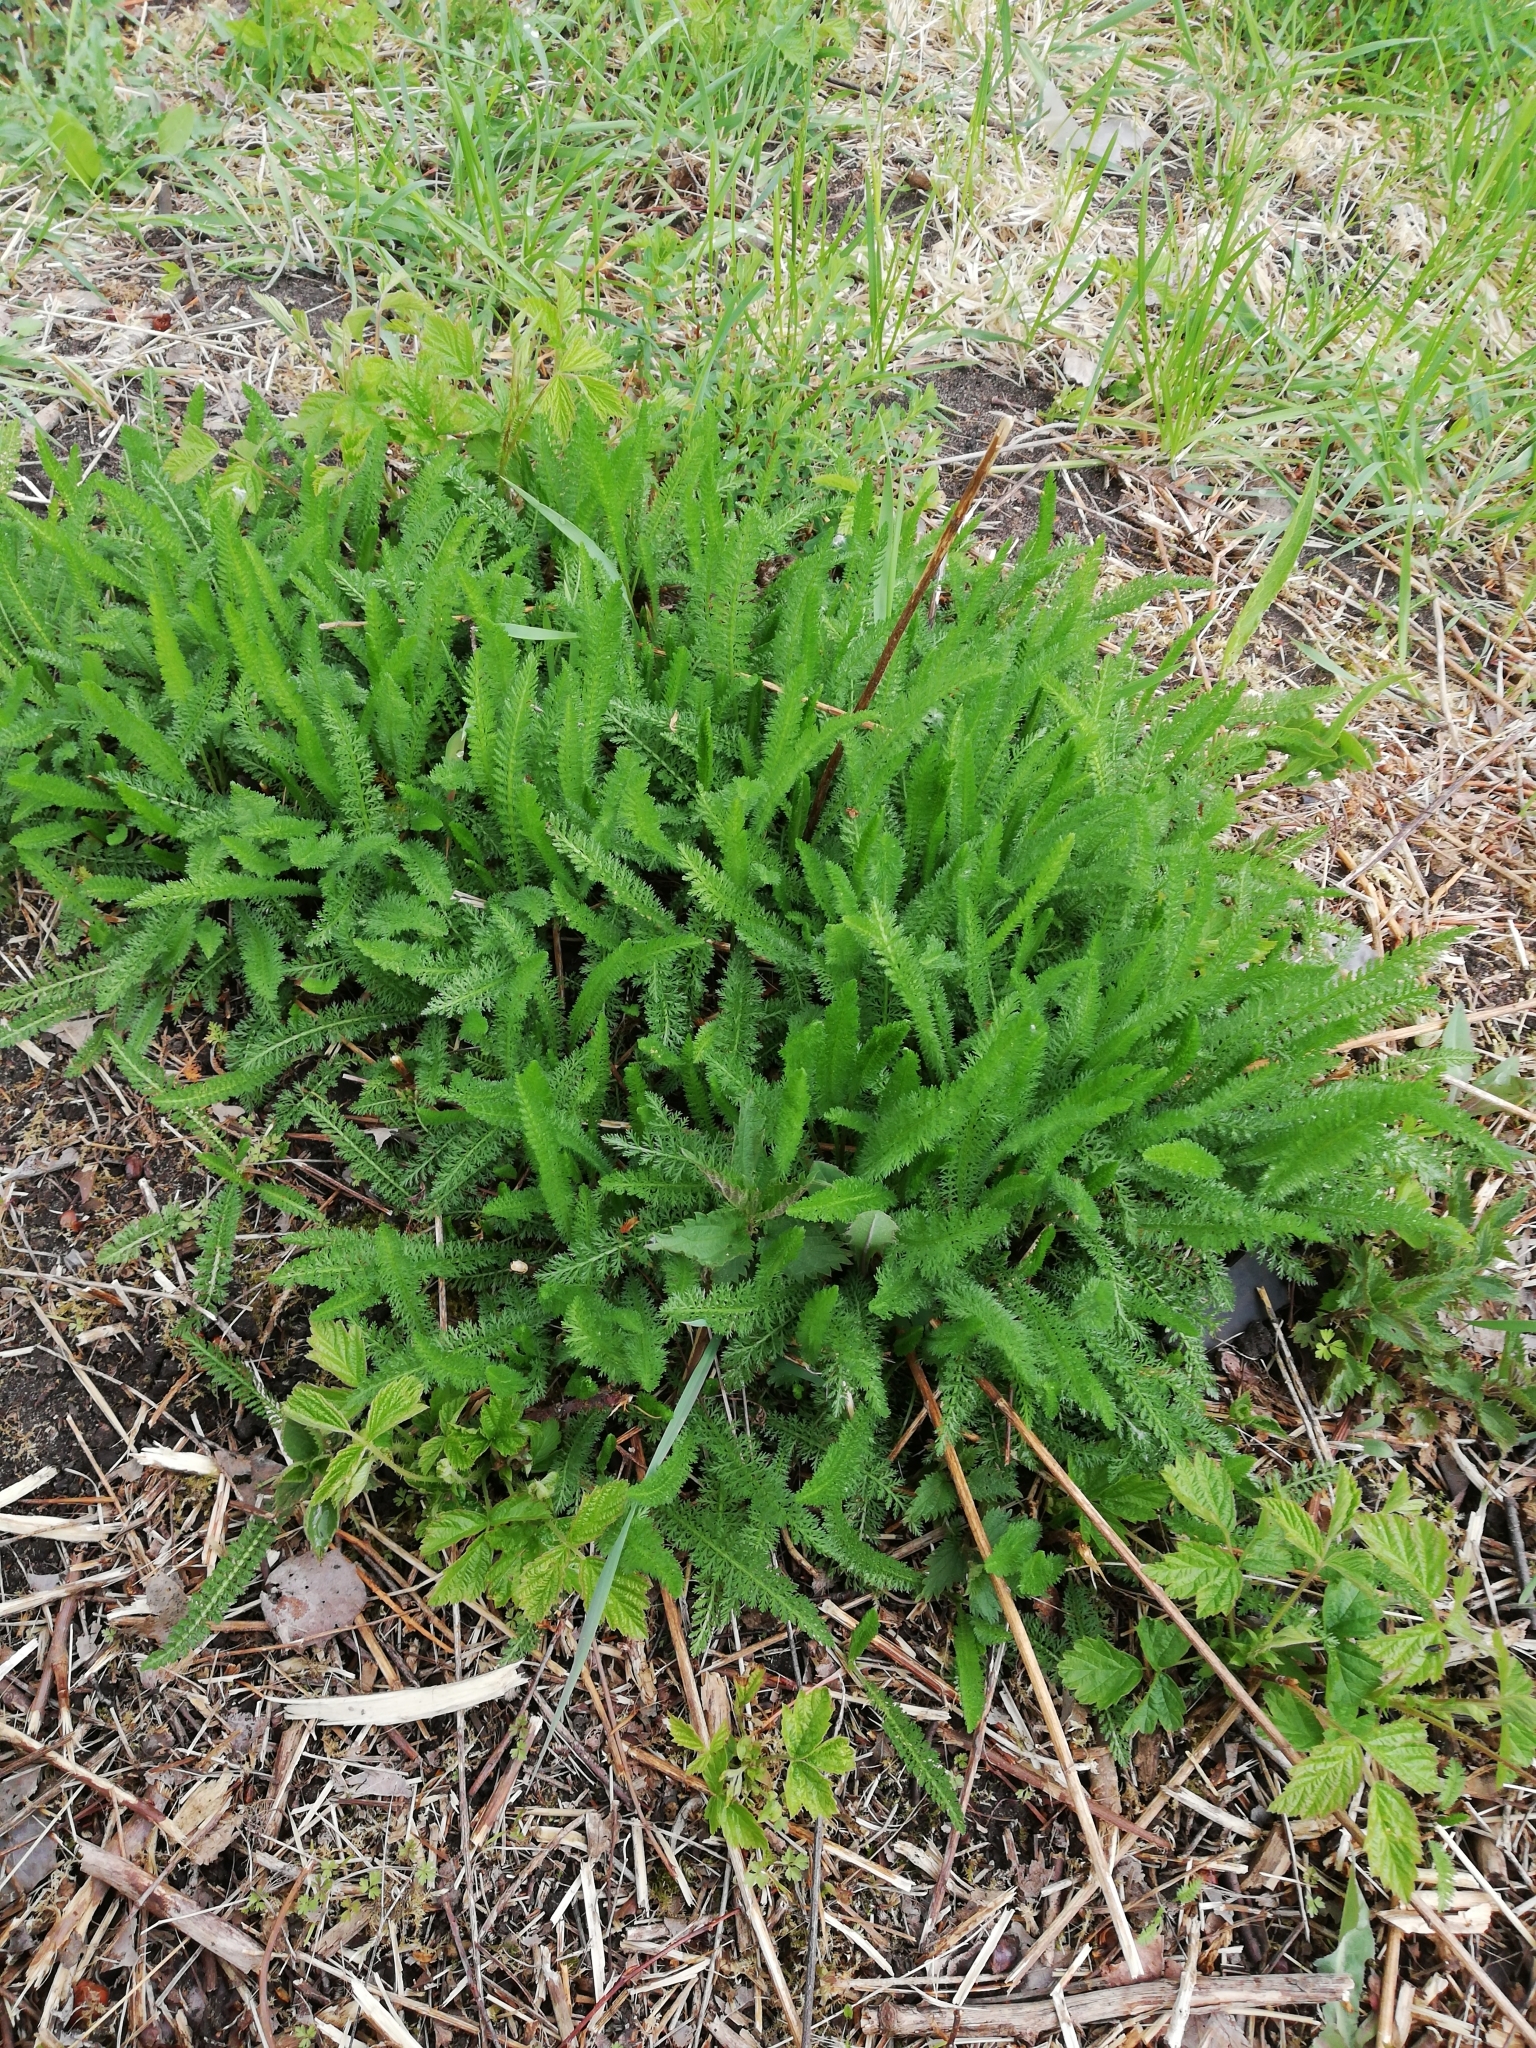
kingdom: Plantae
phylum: Tracheophyta
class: Magnoliopsida
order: Asterales
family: Asteraceae
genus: Achillea
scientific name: Achillea millefolium
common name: Yarrow
